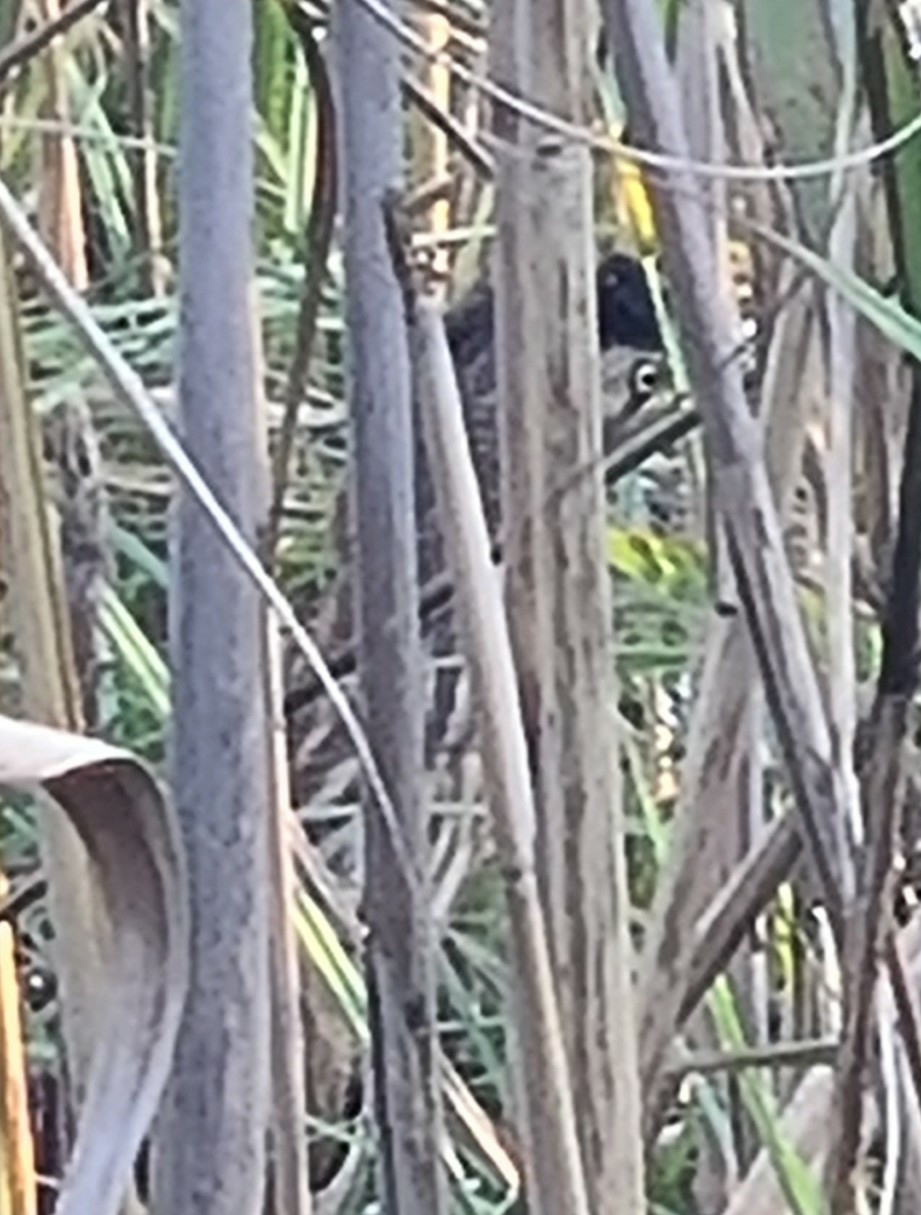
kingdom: Animalia
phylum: Chordata
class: Aves
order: Pelecaniformes
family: Ardeidae
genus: Ixobrychus
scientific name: Ixobrychus minutus
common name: Little bittern
